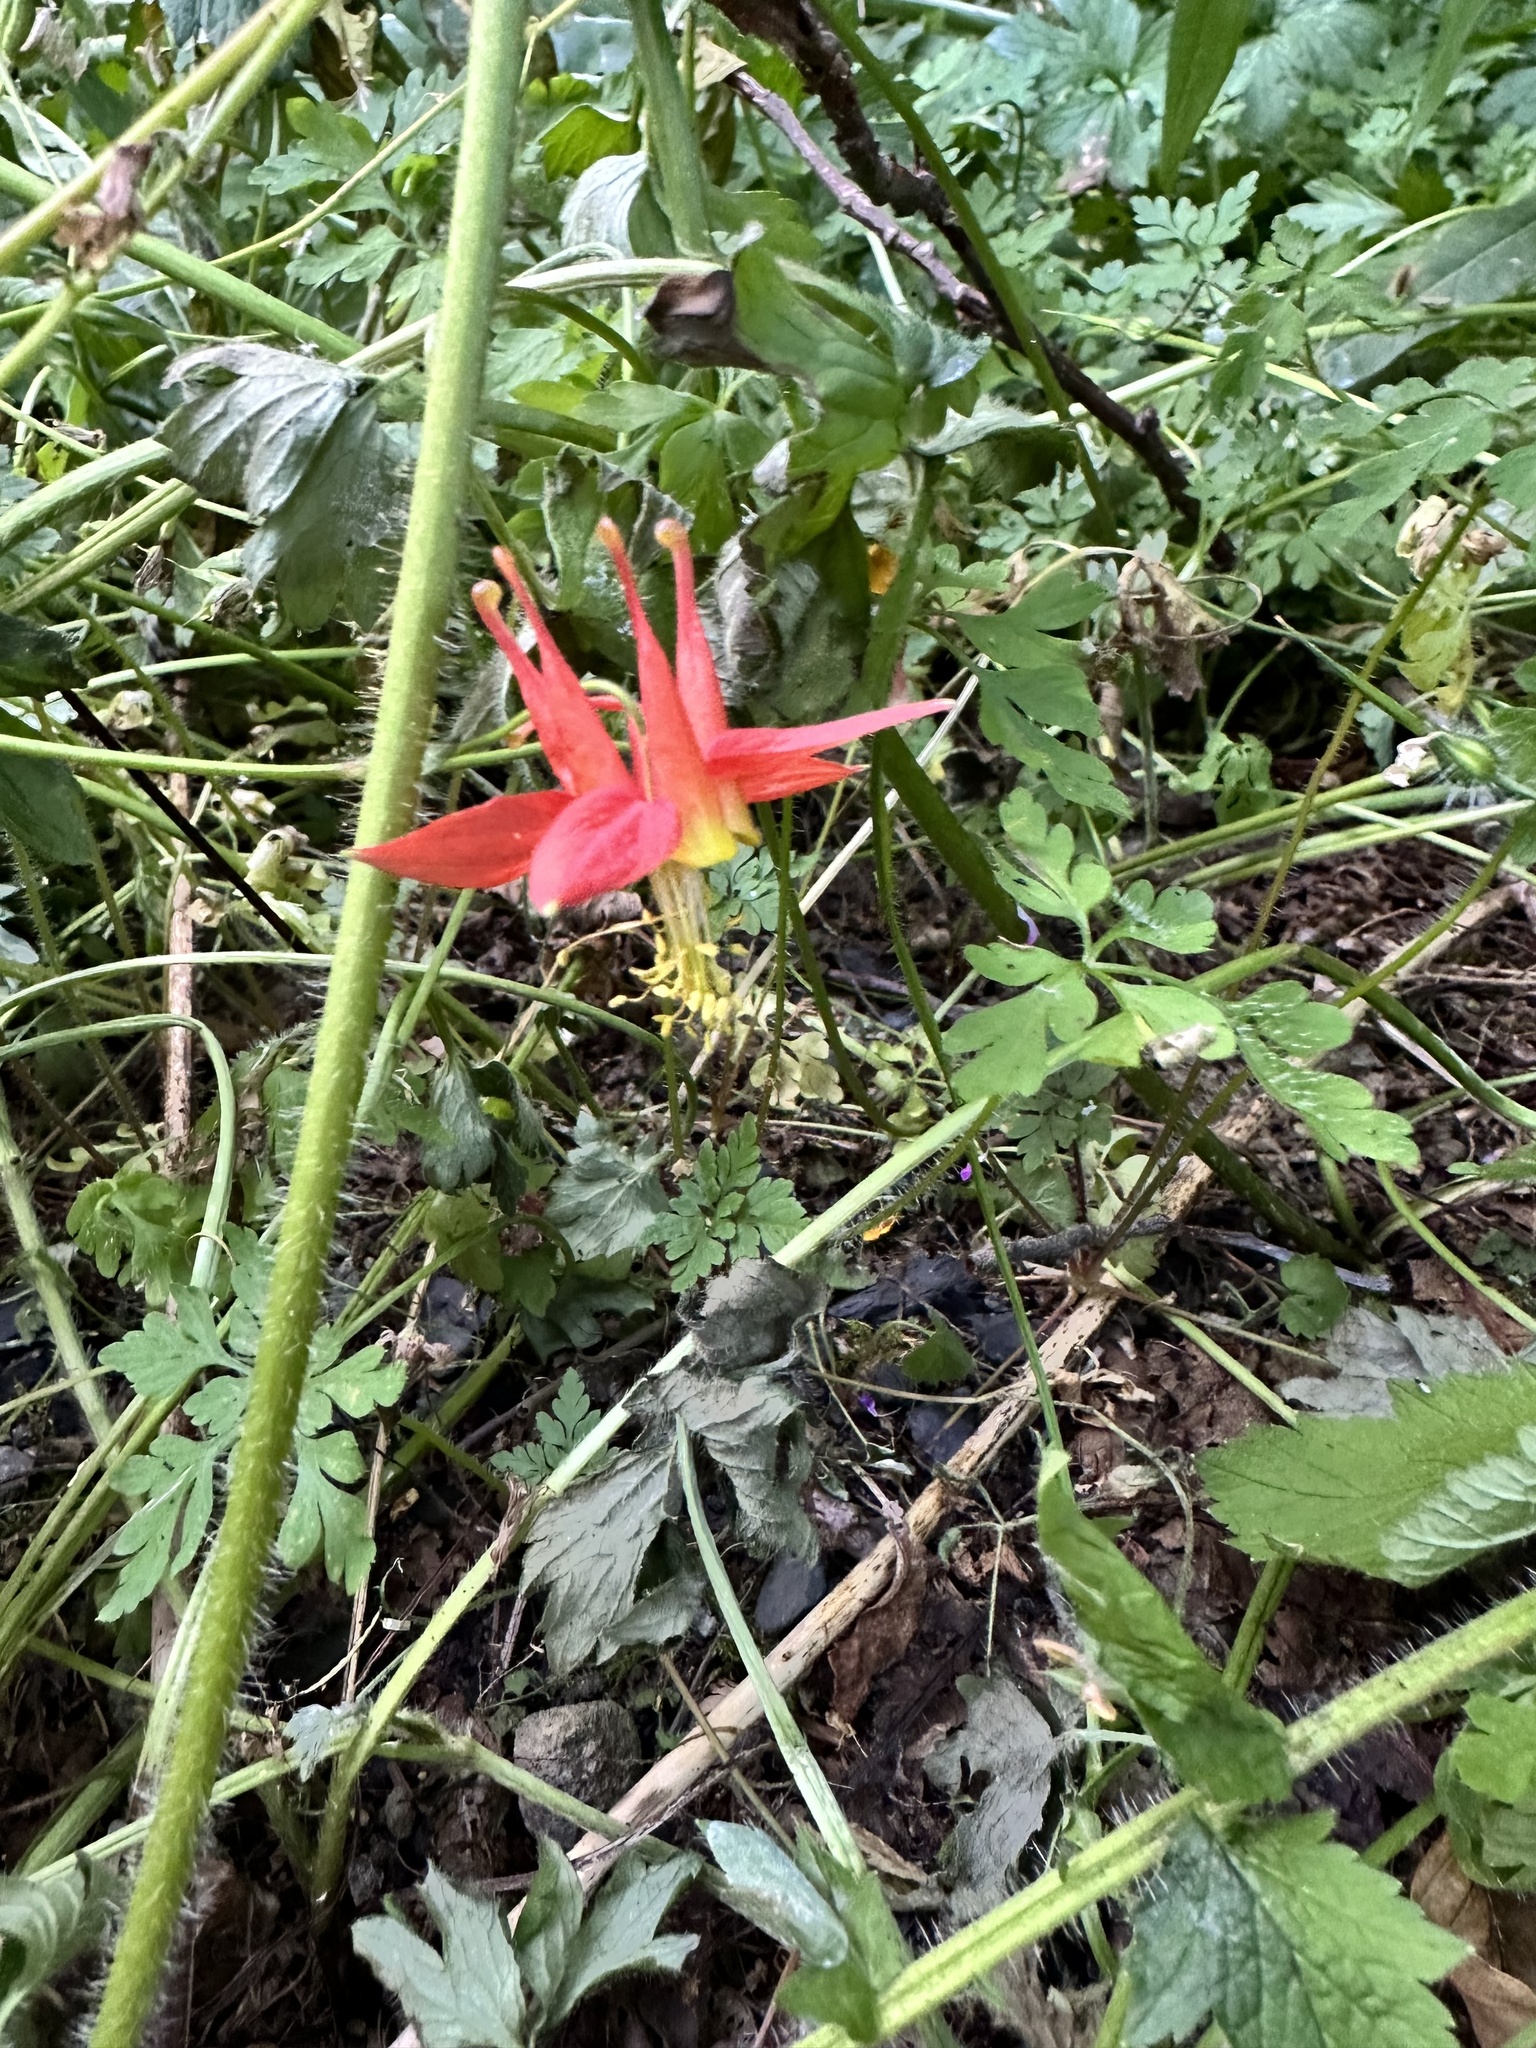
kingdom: Plantae
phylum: Tracheophyta
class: Magnoliopsida
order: Ranunculales
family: Ranunculaceae
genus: Aquilegia
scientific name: Aquilegia formosa
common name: Sitka columbine
